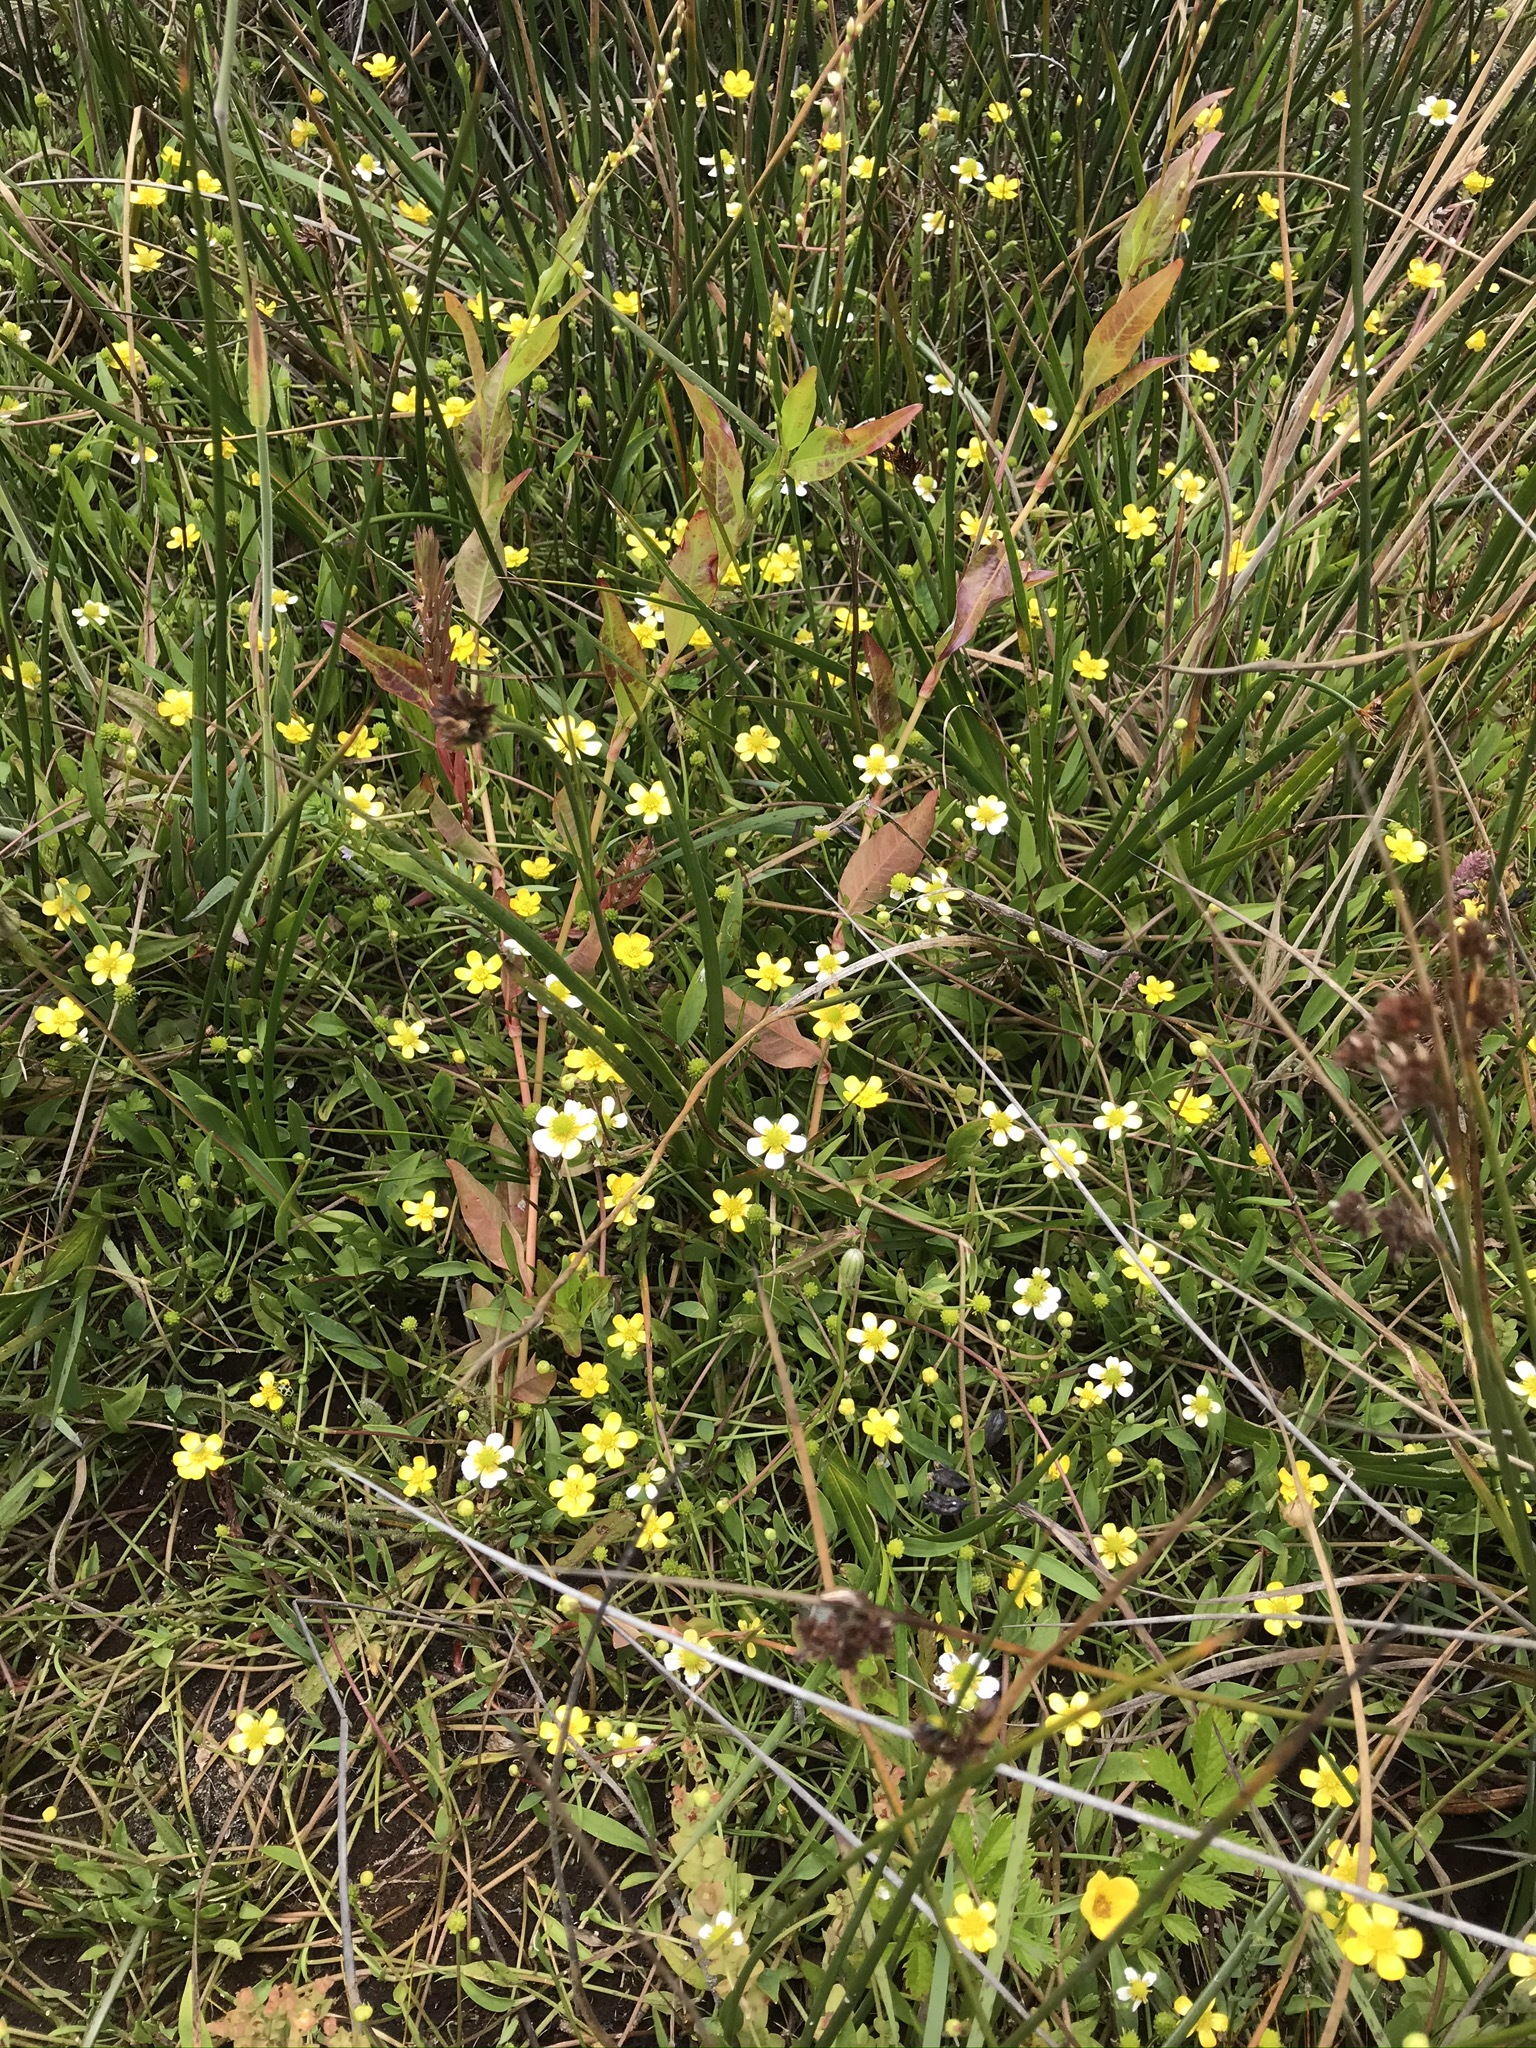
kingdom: Plantae
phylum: Tracheophyta
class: Magnoliopsida
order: Ranunculales
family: Ranunculaceae
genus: Ranunculus
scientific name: Ranunculus flammula
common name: Lesser spearwort
